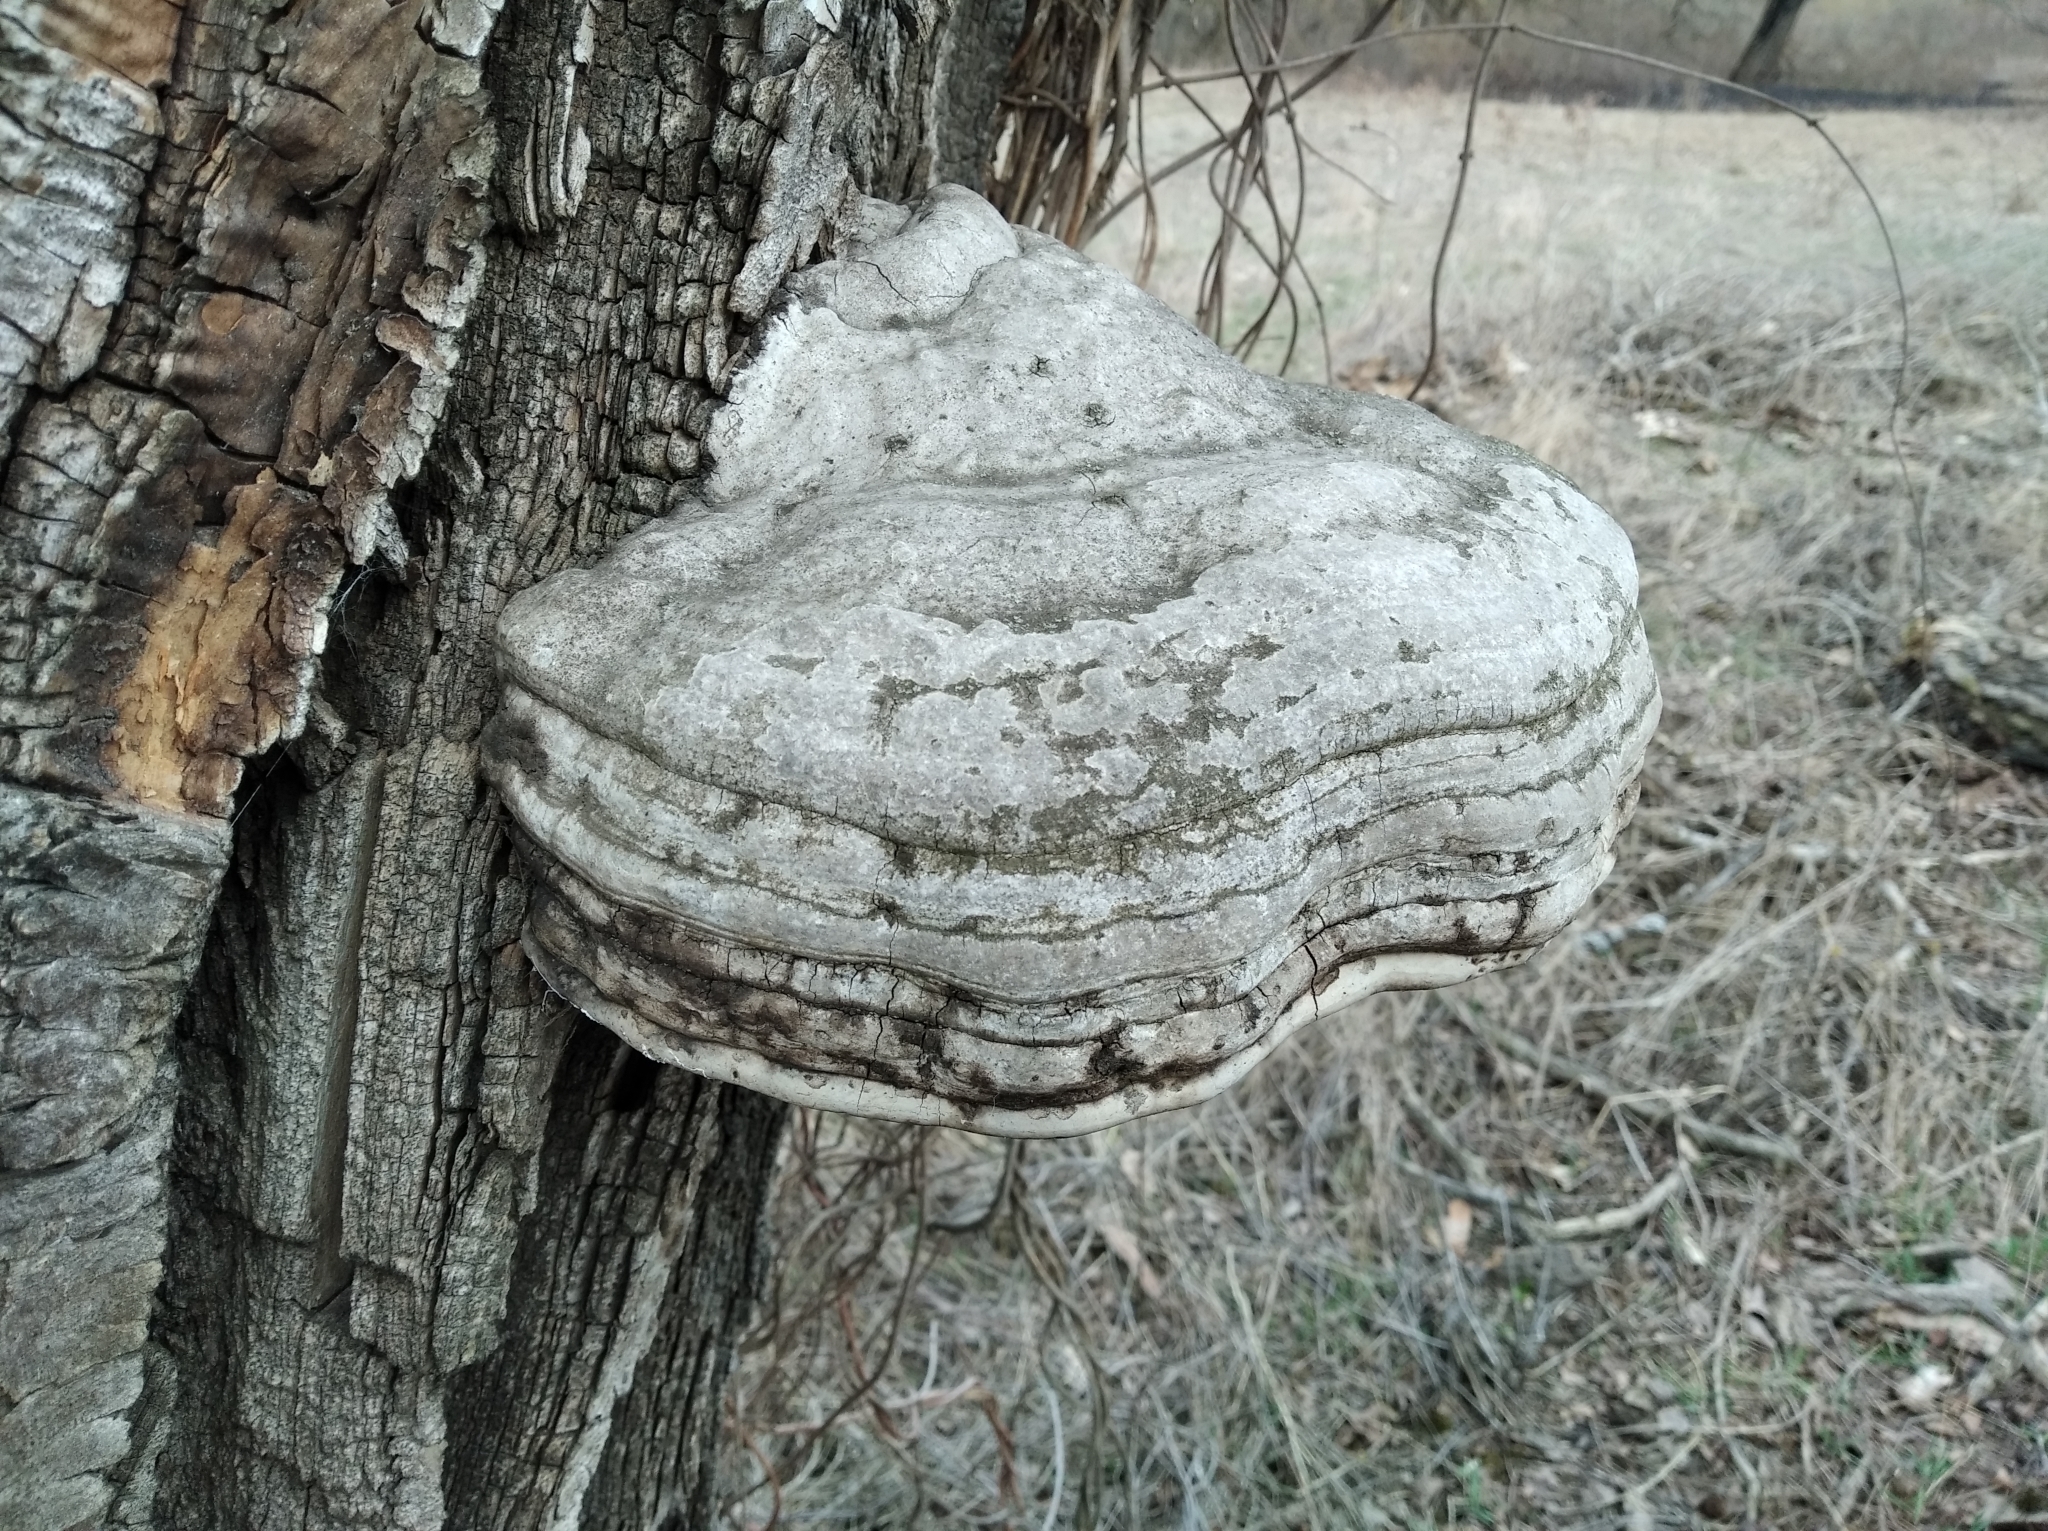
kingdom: Fungi
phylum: Basidiomycota
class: Agaricomycetes
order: Polyporales
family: Polyporaceae
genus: Fomes
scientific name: Fomes fomentarius
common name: Hoof fungus
